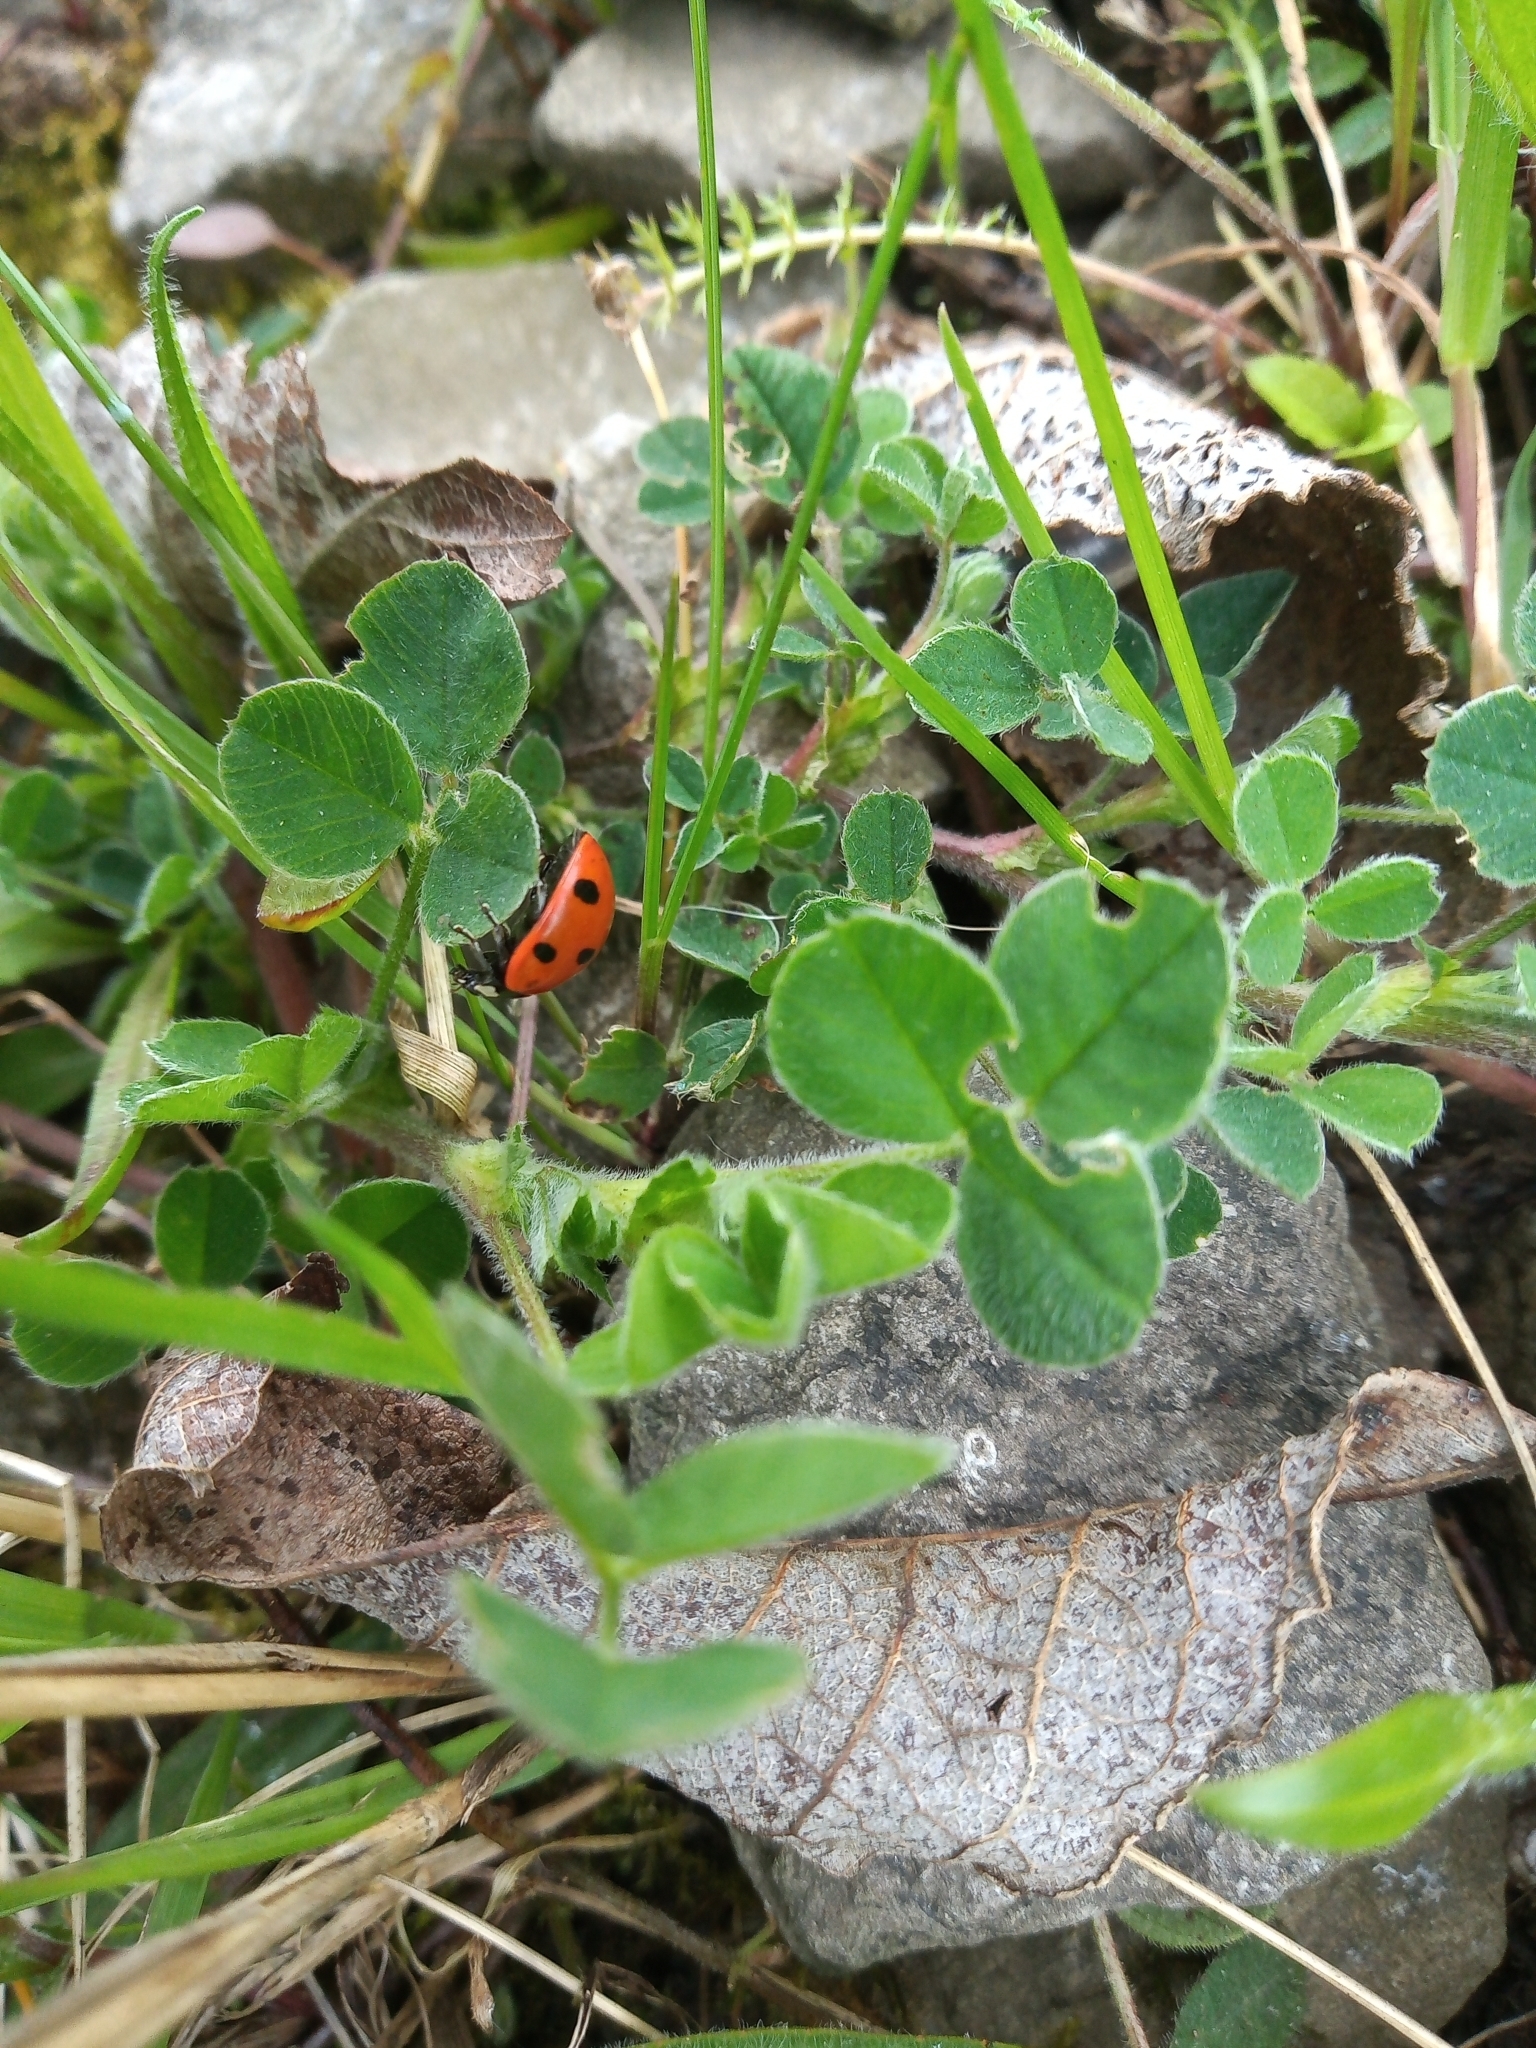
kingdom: Animalia
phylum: Arthropoda
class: Insecta
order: Coleoptera
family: Coccinellidae
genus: Coccinella
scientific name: Coccinella septempunctata
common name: Sevenspotted lady beetle
